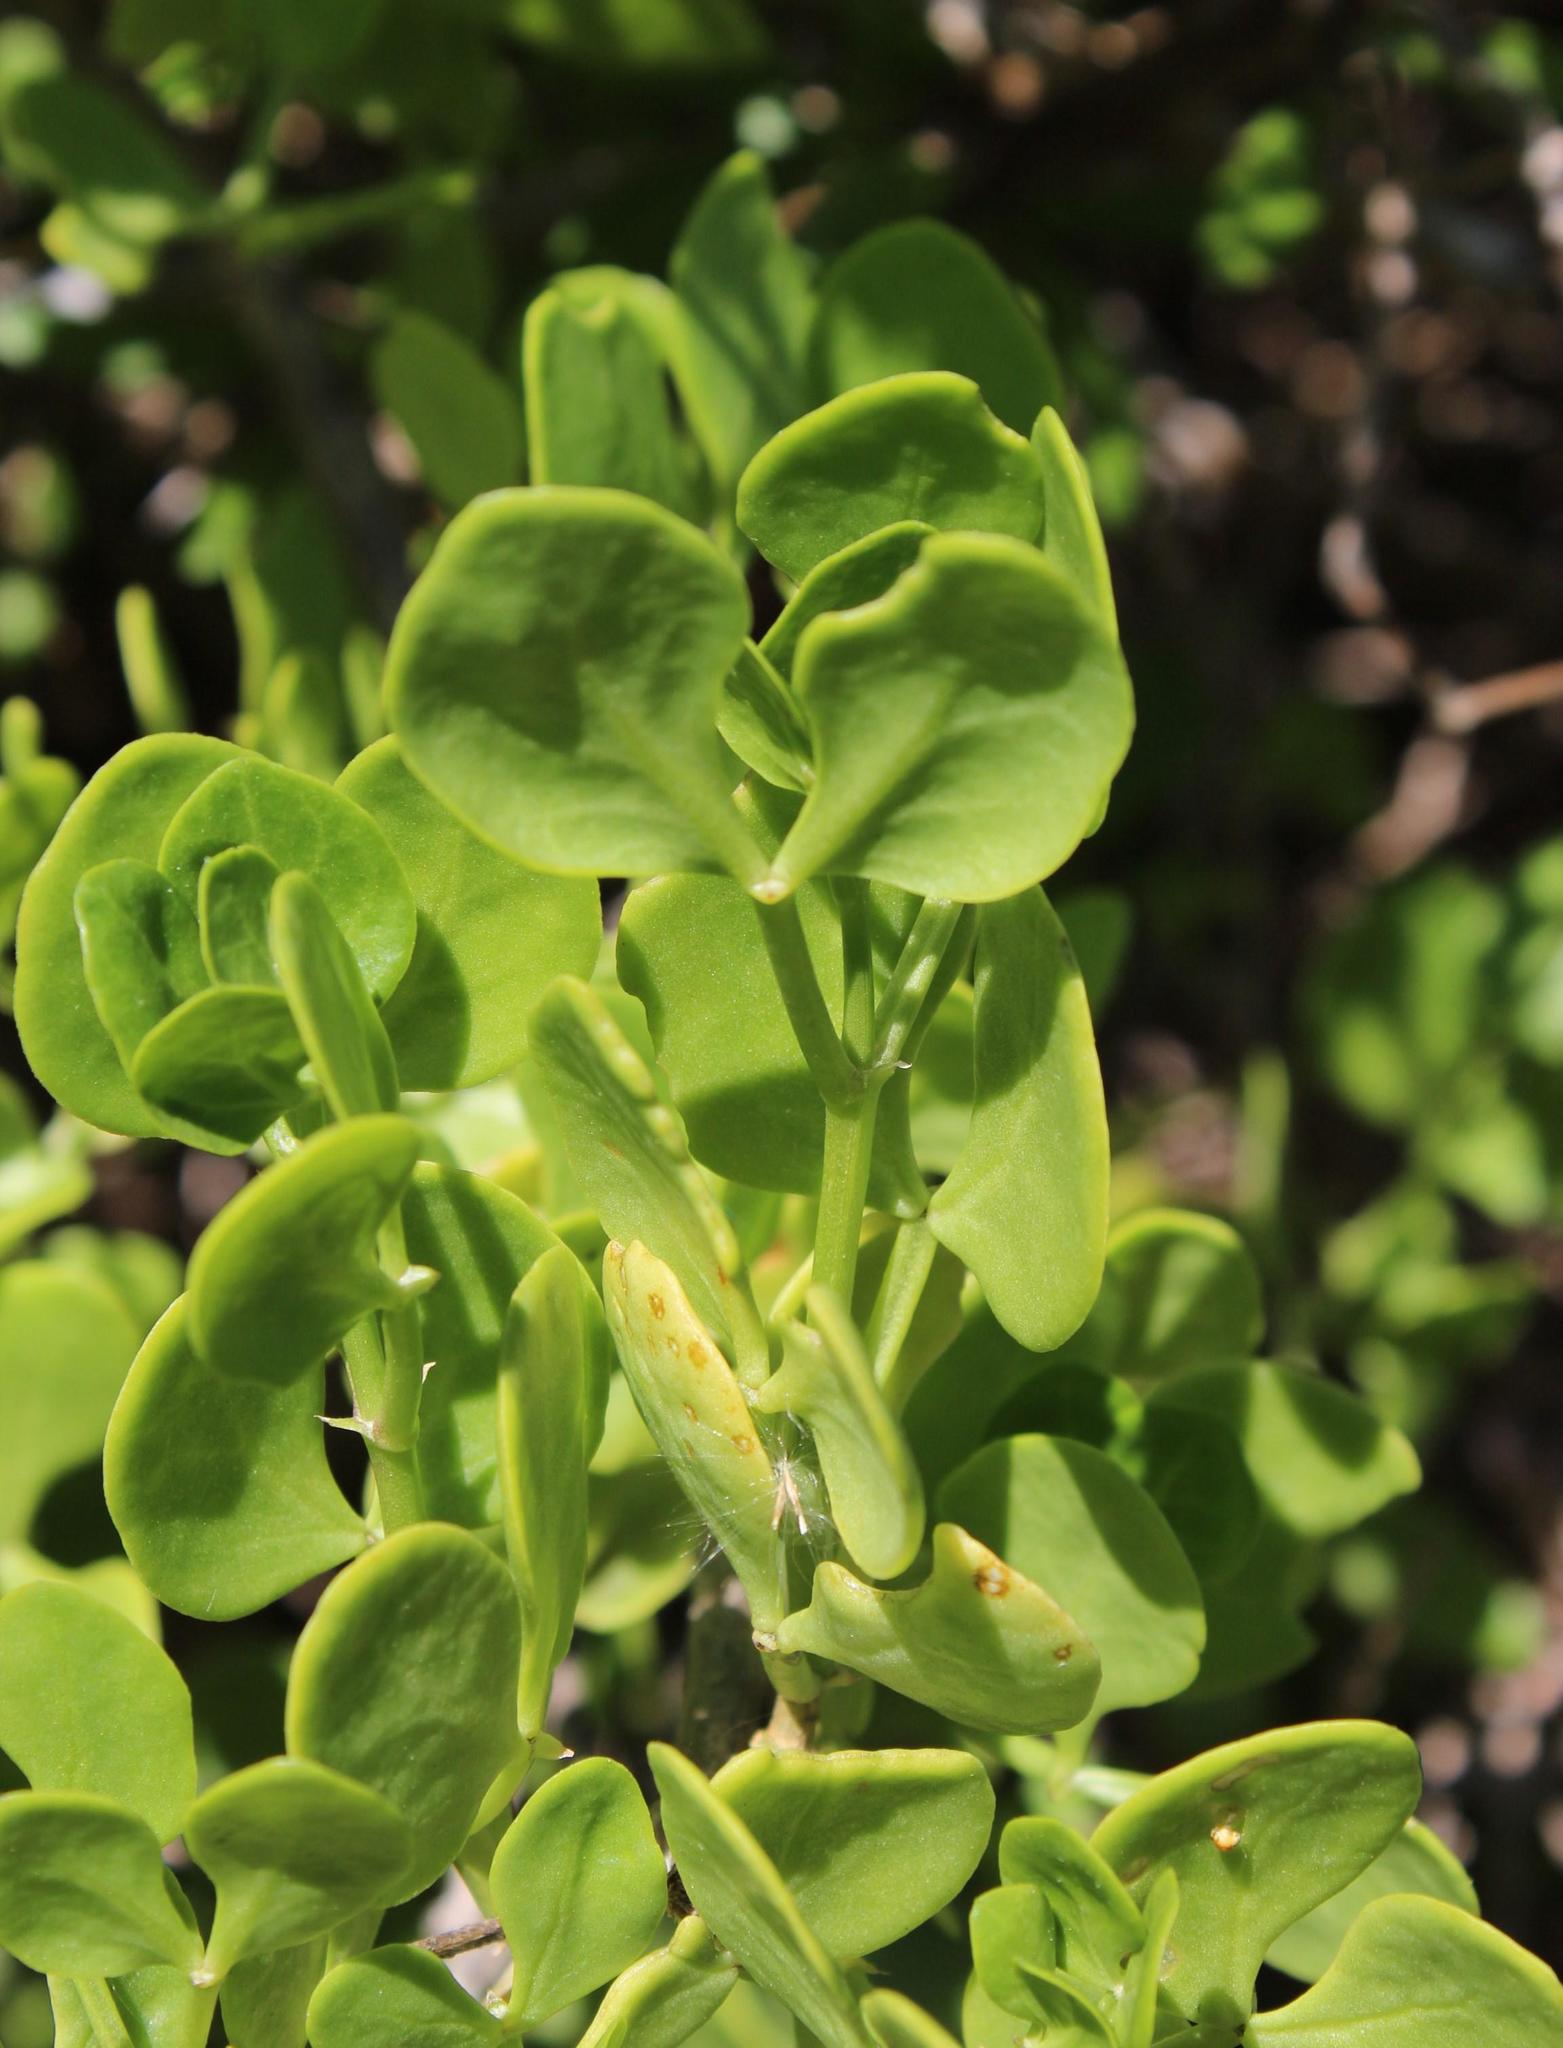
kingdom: Plantae
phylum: Tracheophyta
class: Magnoliopsida
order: Zygophyllales
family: Zygophyllaceae
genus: Roepera
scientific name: Roepera foetida
